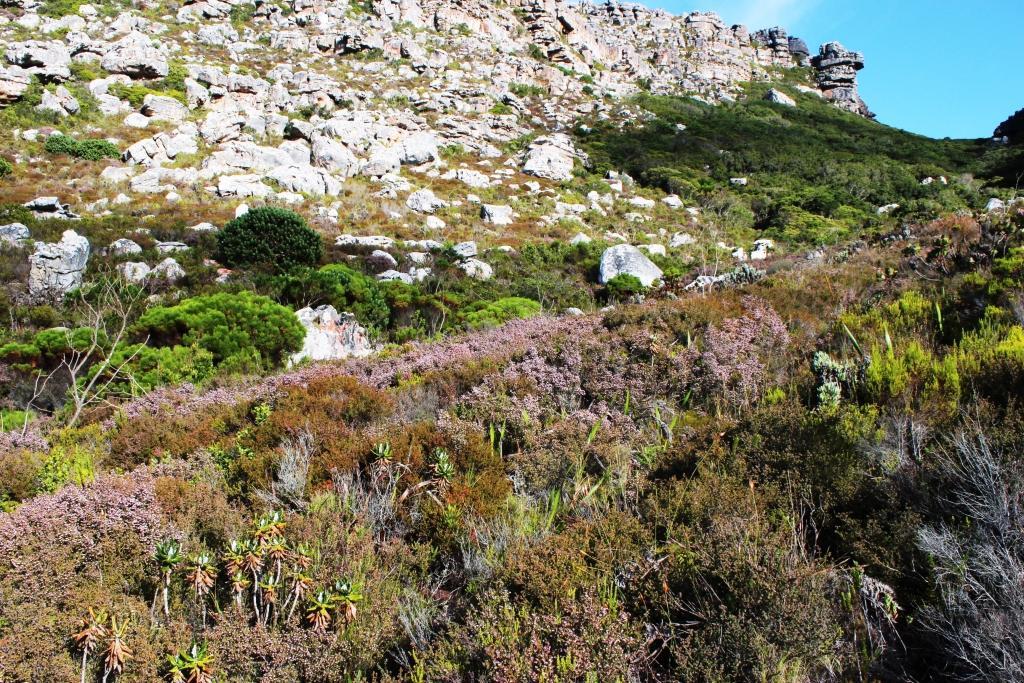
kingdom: Plantae
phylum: Tracheophyta
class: Magnoliopsida
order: Ericales
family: Ericaceae
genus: Erica
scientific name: Erica ericoides
